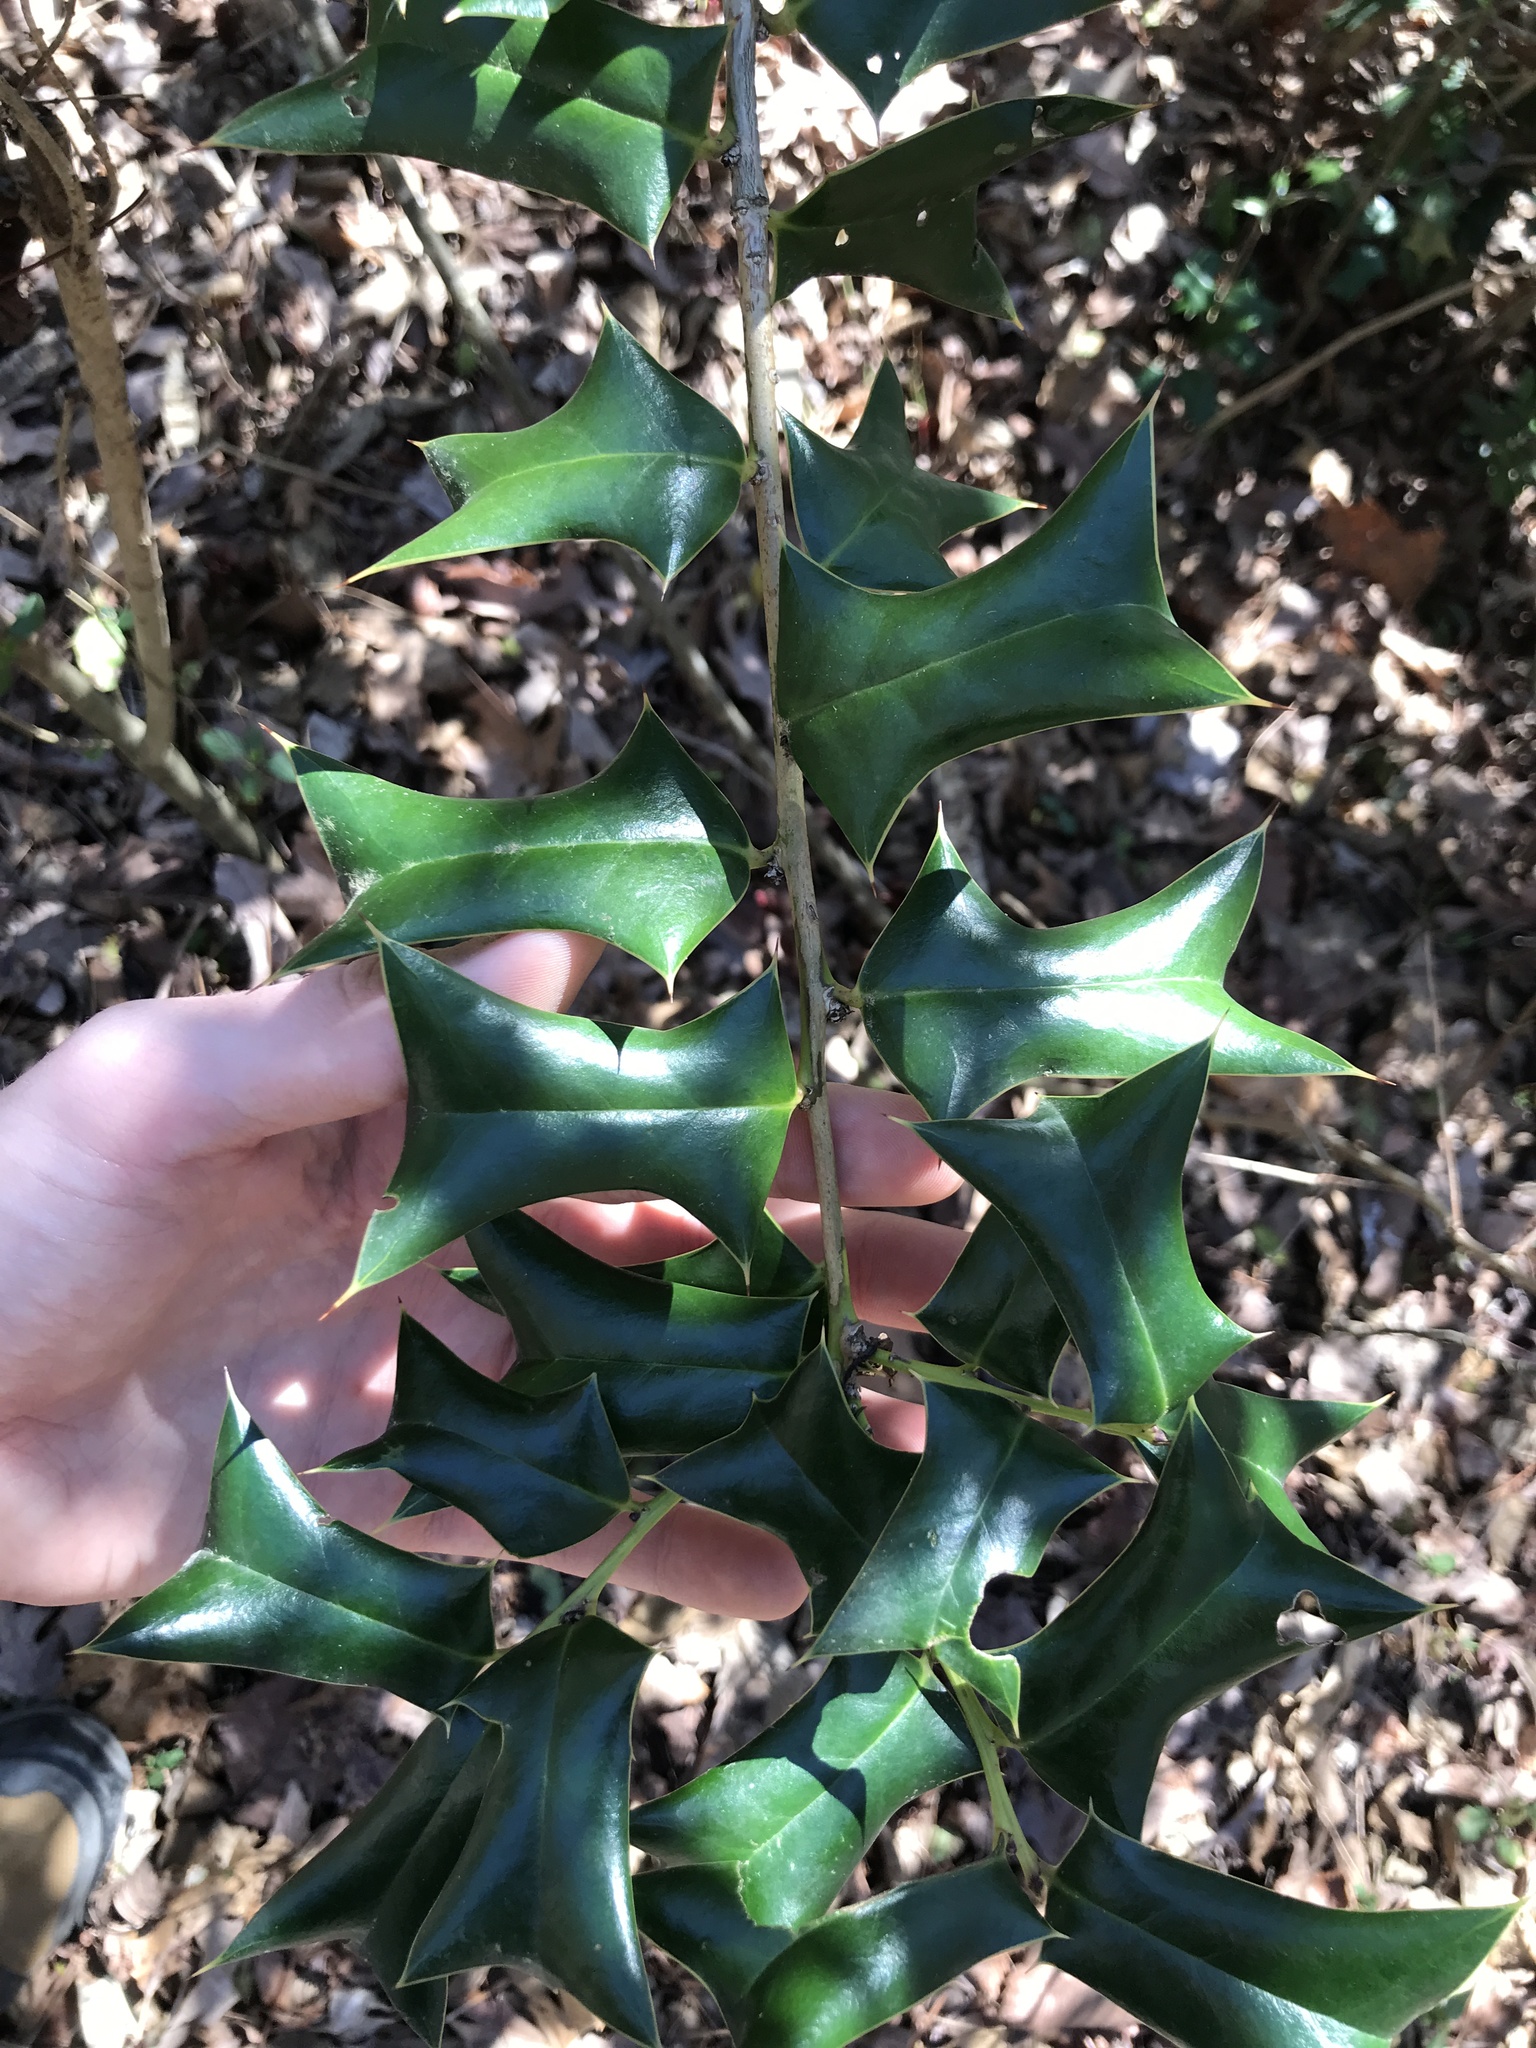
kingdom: Plantae
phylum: Tracheophyta
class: Magnoliopsida
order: Aquifoliales
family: Aquifoliaceae
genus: Ilex
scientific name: Ilex cornuta
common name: Chinese holly
